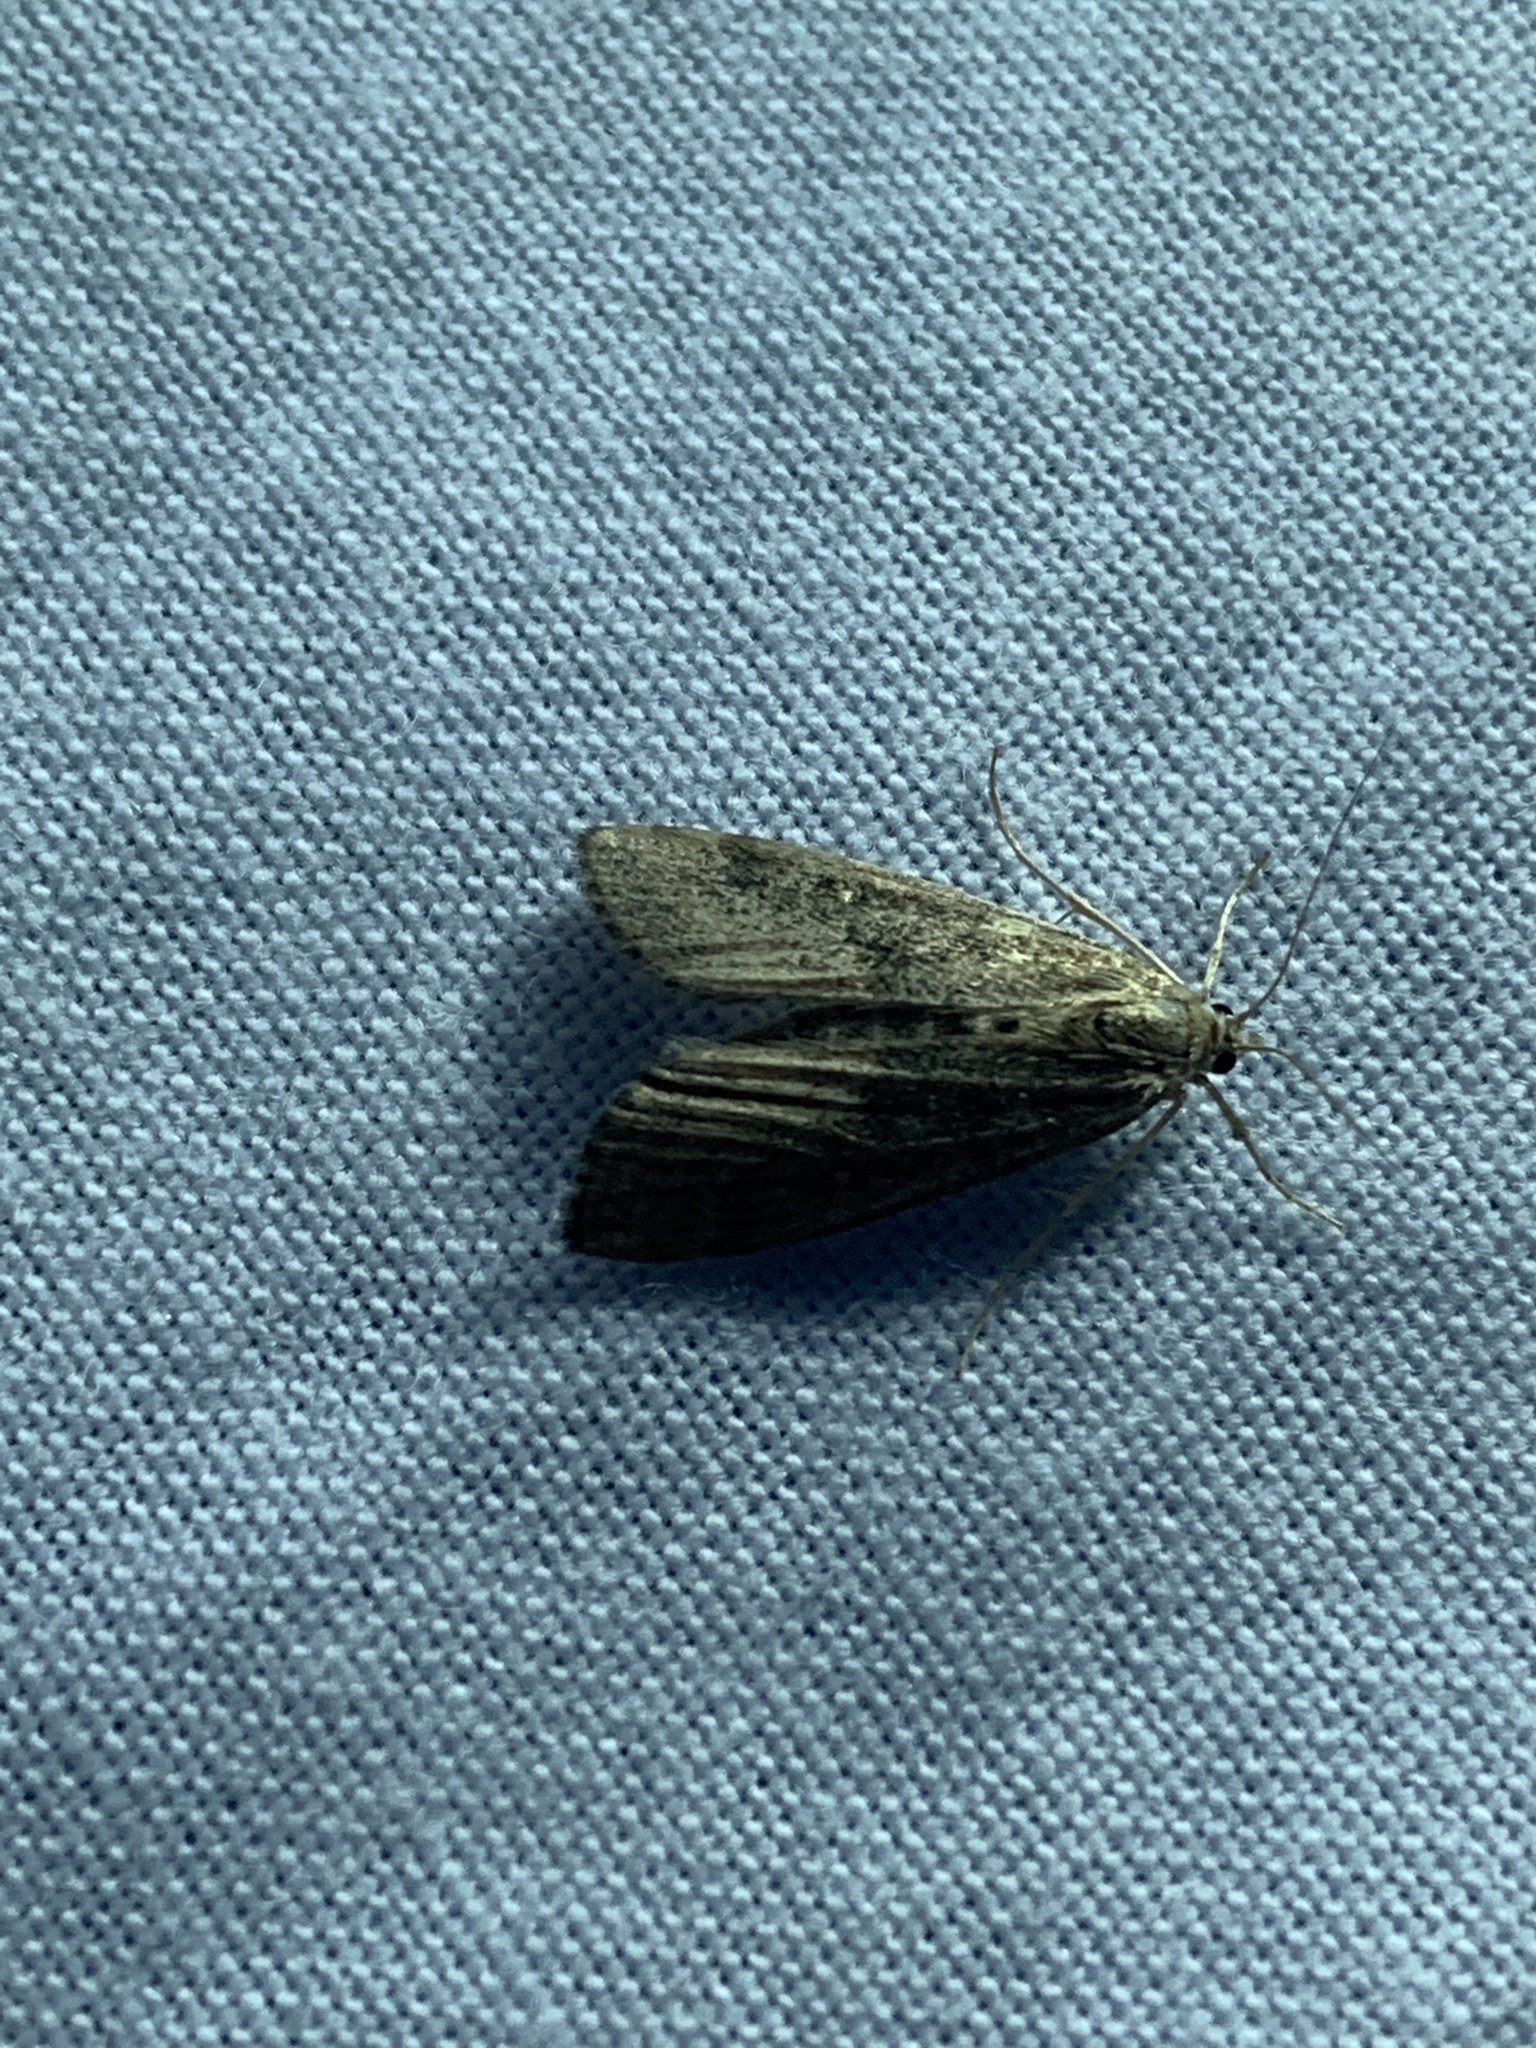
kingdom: Animalia
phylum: Arthropoda
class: Insecta
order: Lepidoptera
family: Crambidae
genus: Parapoynx
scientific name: Parapoynx stratiotata
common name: Ringed china-mark
